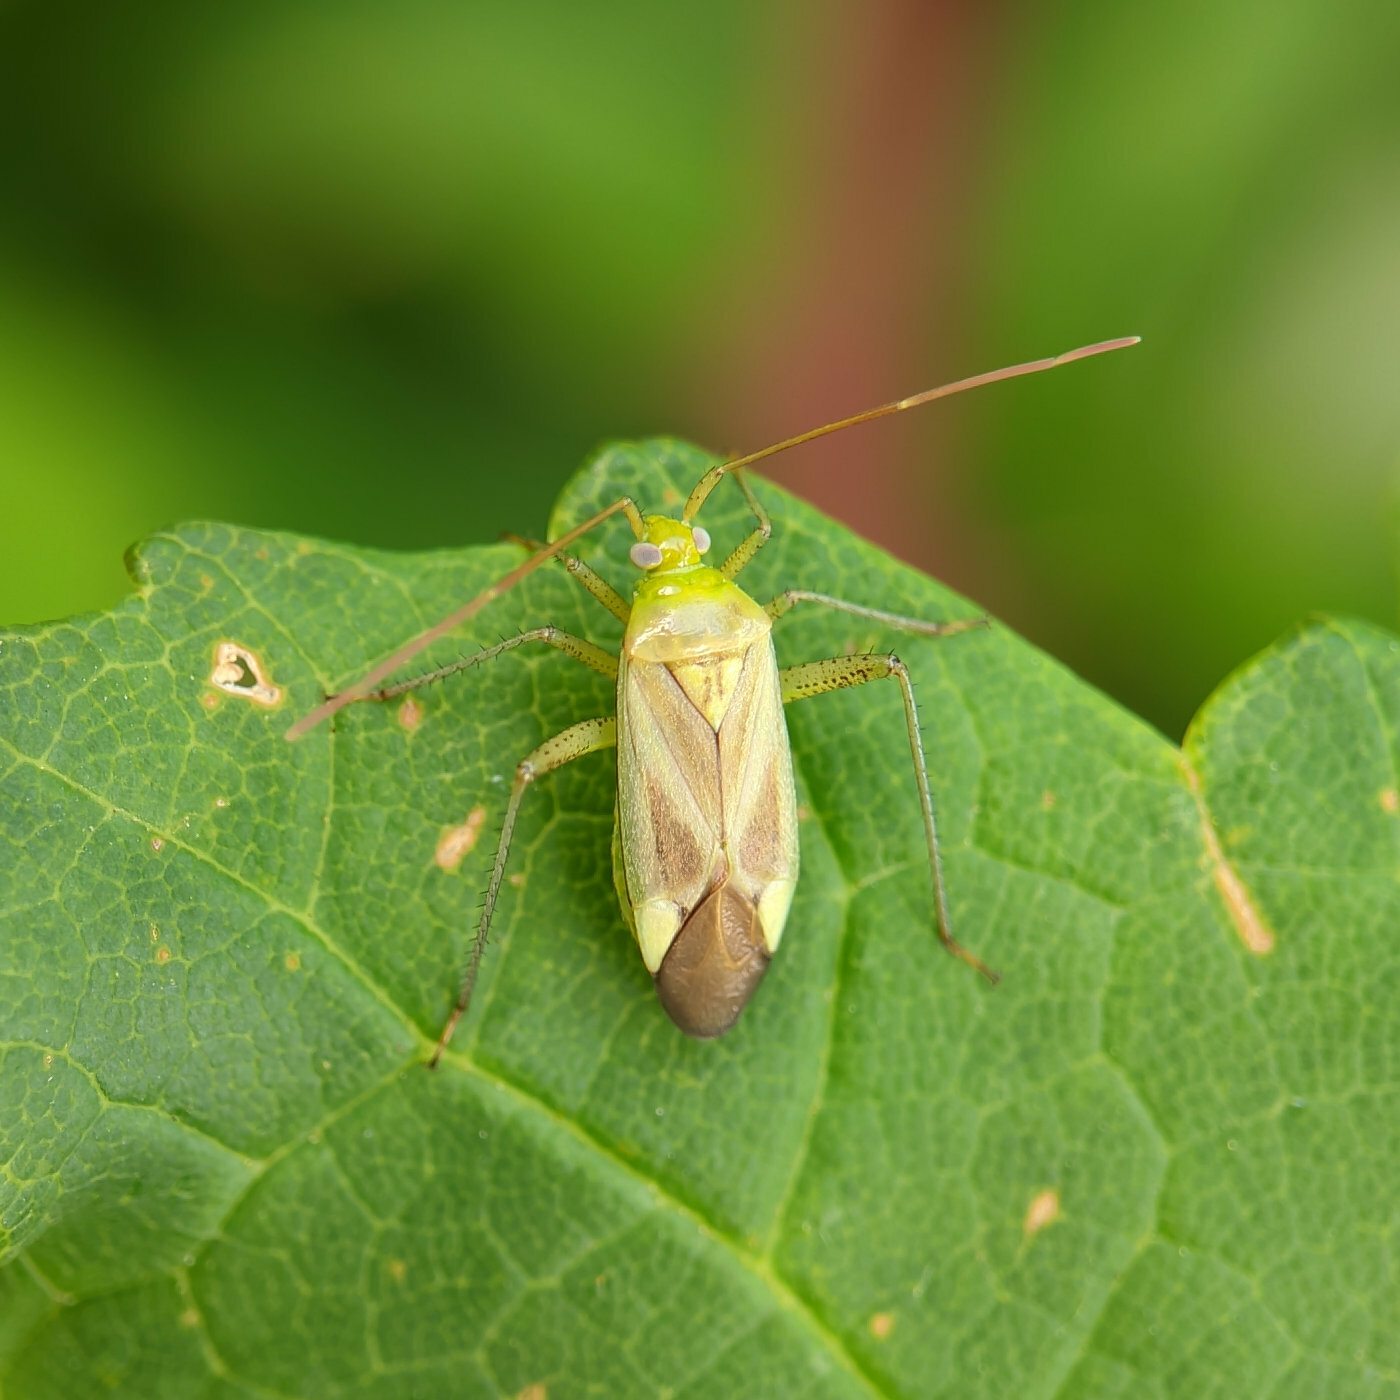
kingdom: Animalia
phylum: Arthropoda
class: Insecta
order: Hemiptera
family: Miridae
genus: Adelphocoris
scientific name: Adelphocoris lineolatus
